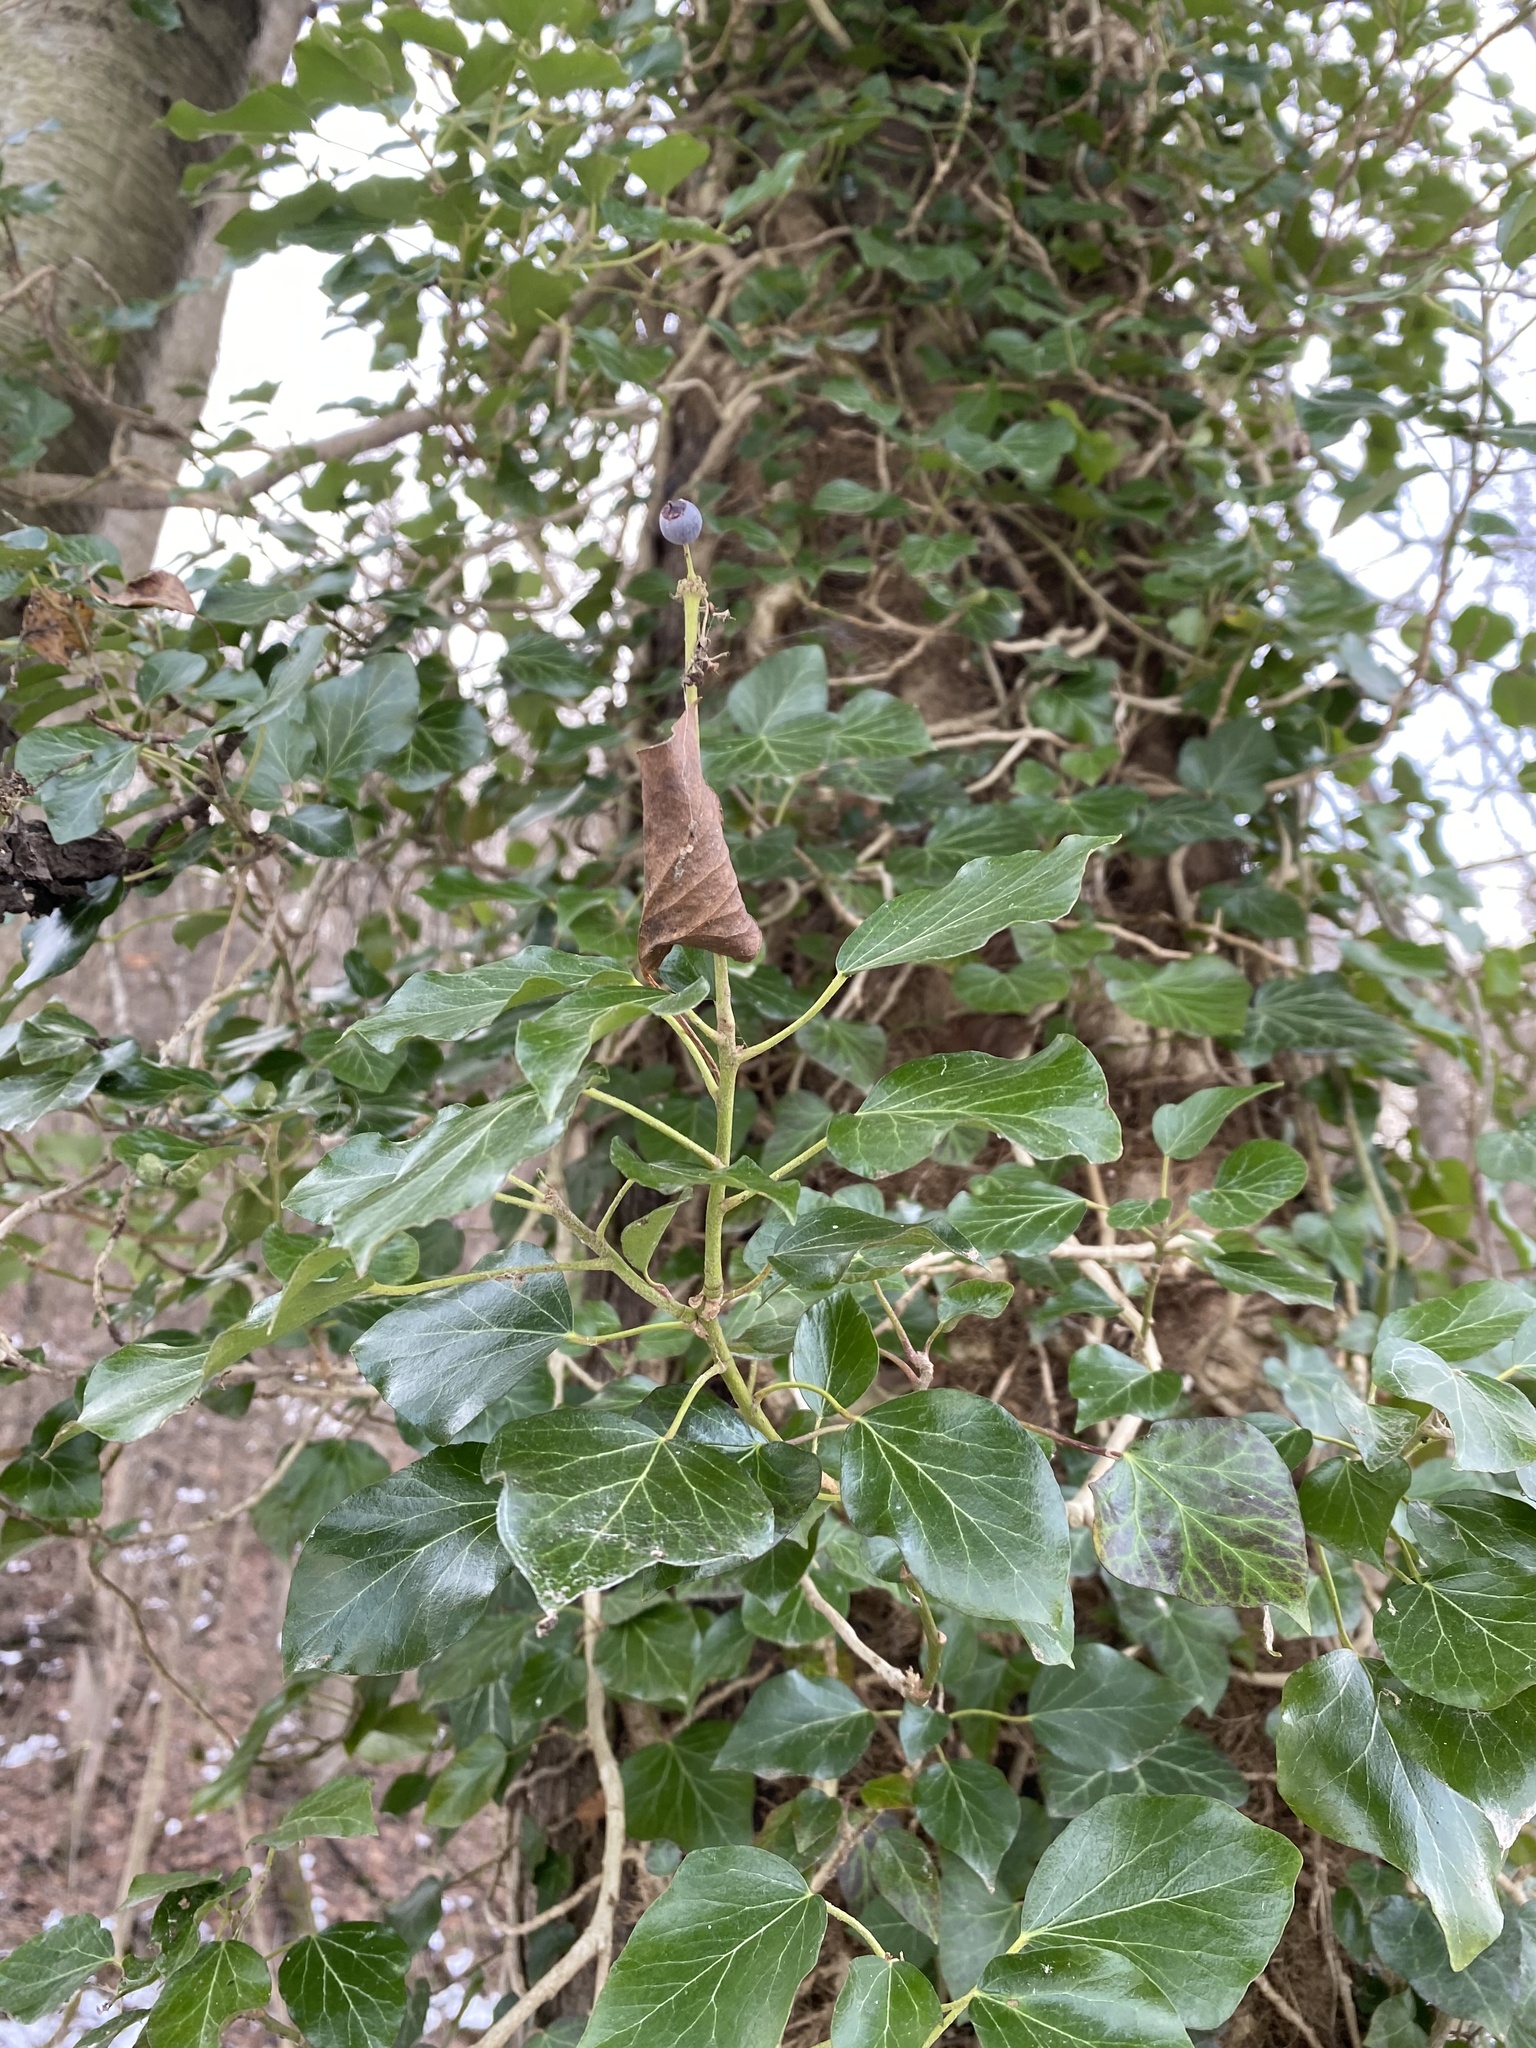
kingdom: Plantae
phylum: Tracheophyta
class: Magnoliopsida
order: Apiales
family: Araliaceae
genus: Hedera
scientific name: Hedera helix
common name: Ivy
